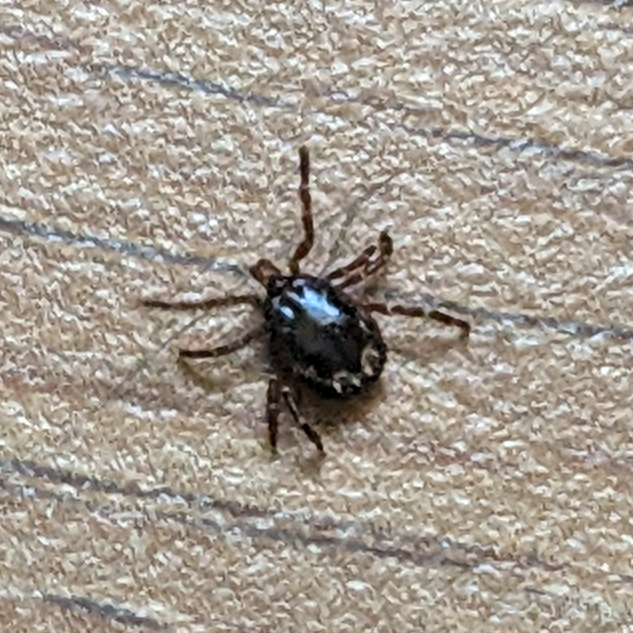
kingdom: Animalia
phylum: Arthropoda
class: Arachnida
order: Ixodida
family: Ixodidae
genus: Amblyomma
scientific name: Amblyomma americanum
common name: Lone star tick
